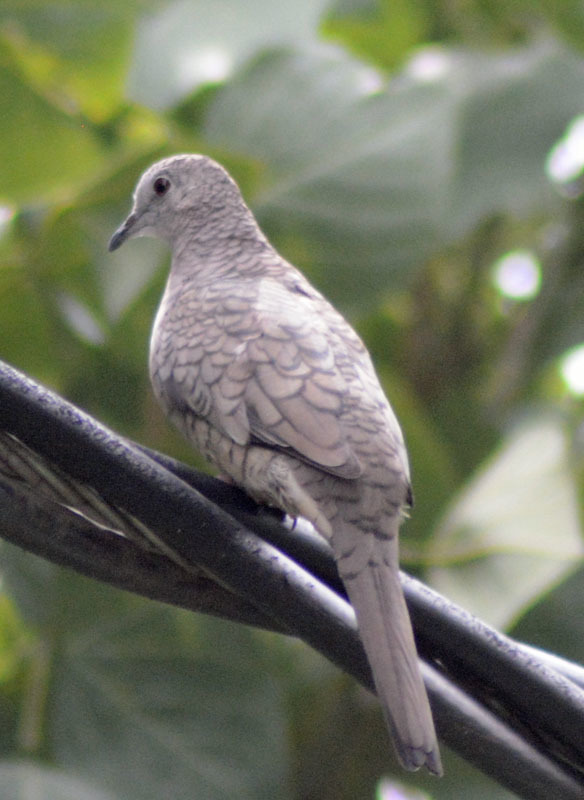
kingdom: Animalia
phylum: Chordata
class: Aves
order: Columbiformes
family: Columbidae
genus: Columbina
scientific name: Columbina inca
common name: Inca dove
